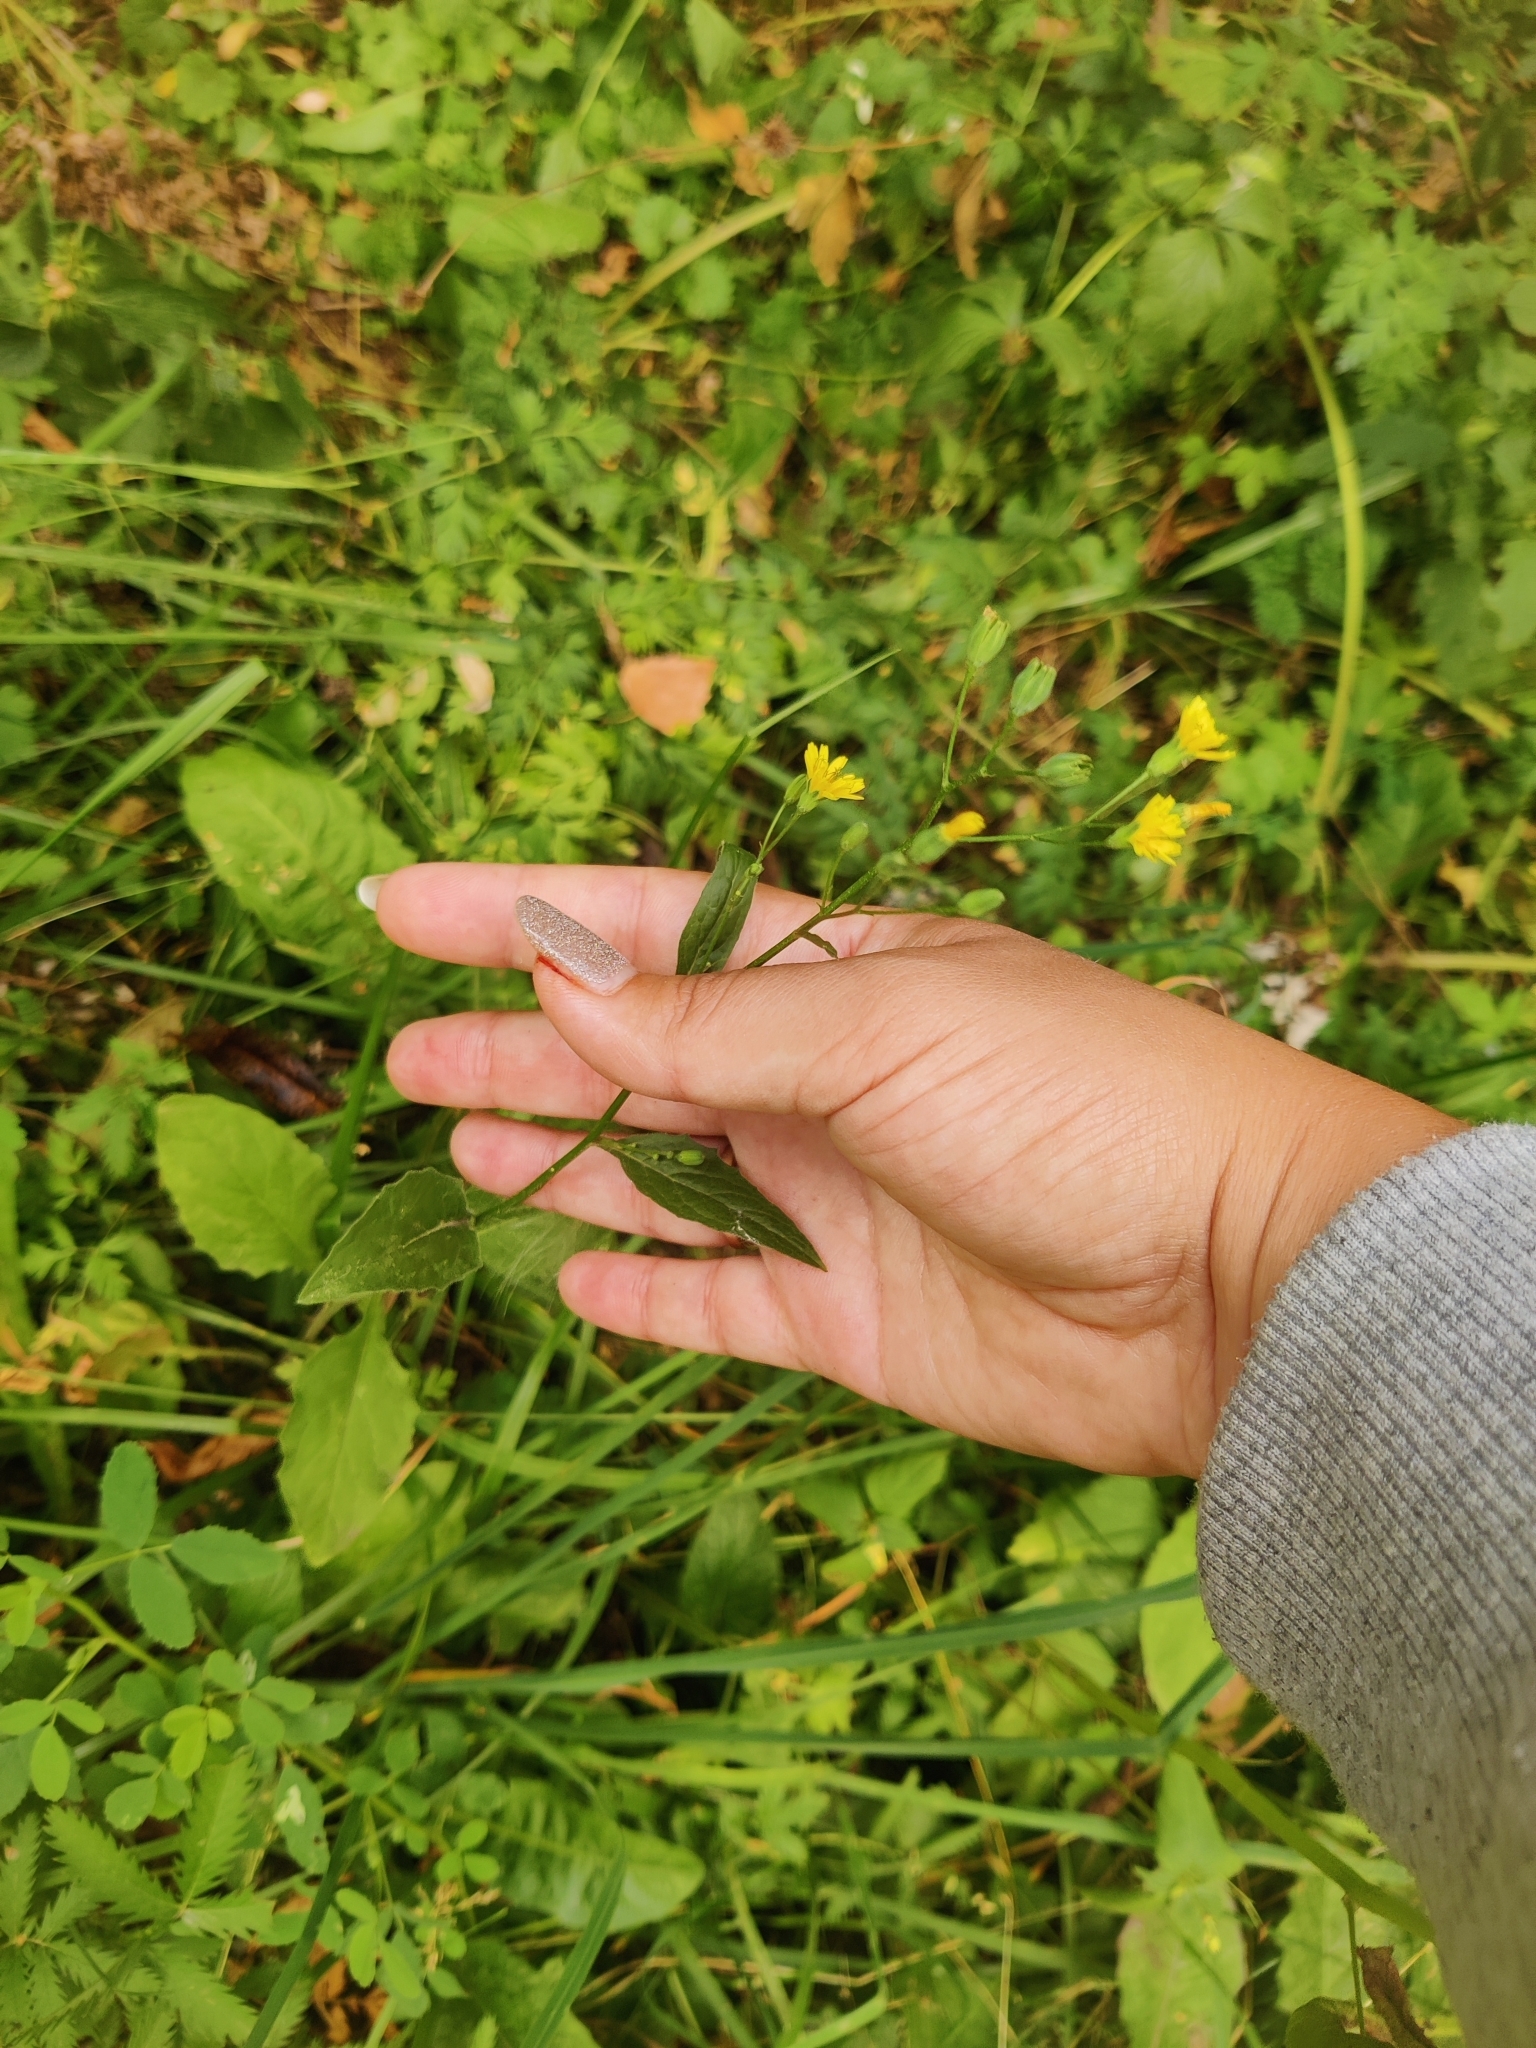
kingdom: Plantae
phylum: Tracheophyta
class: Magnoliopsida
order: Asterales
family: Asteraceae
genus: Lapsana
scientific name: Lapsana communis
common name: Nipplewort
